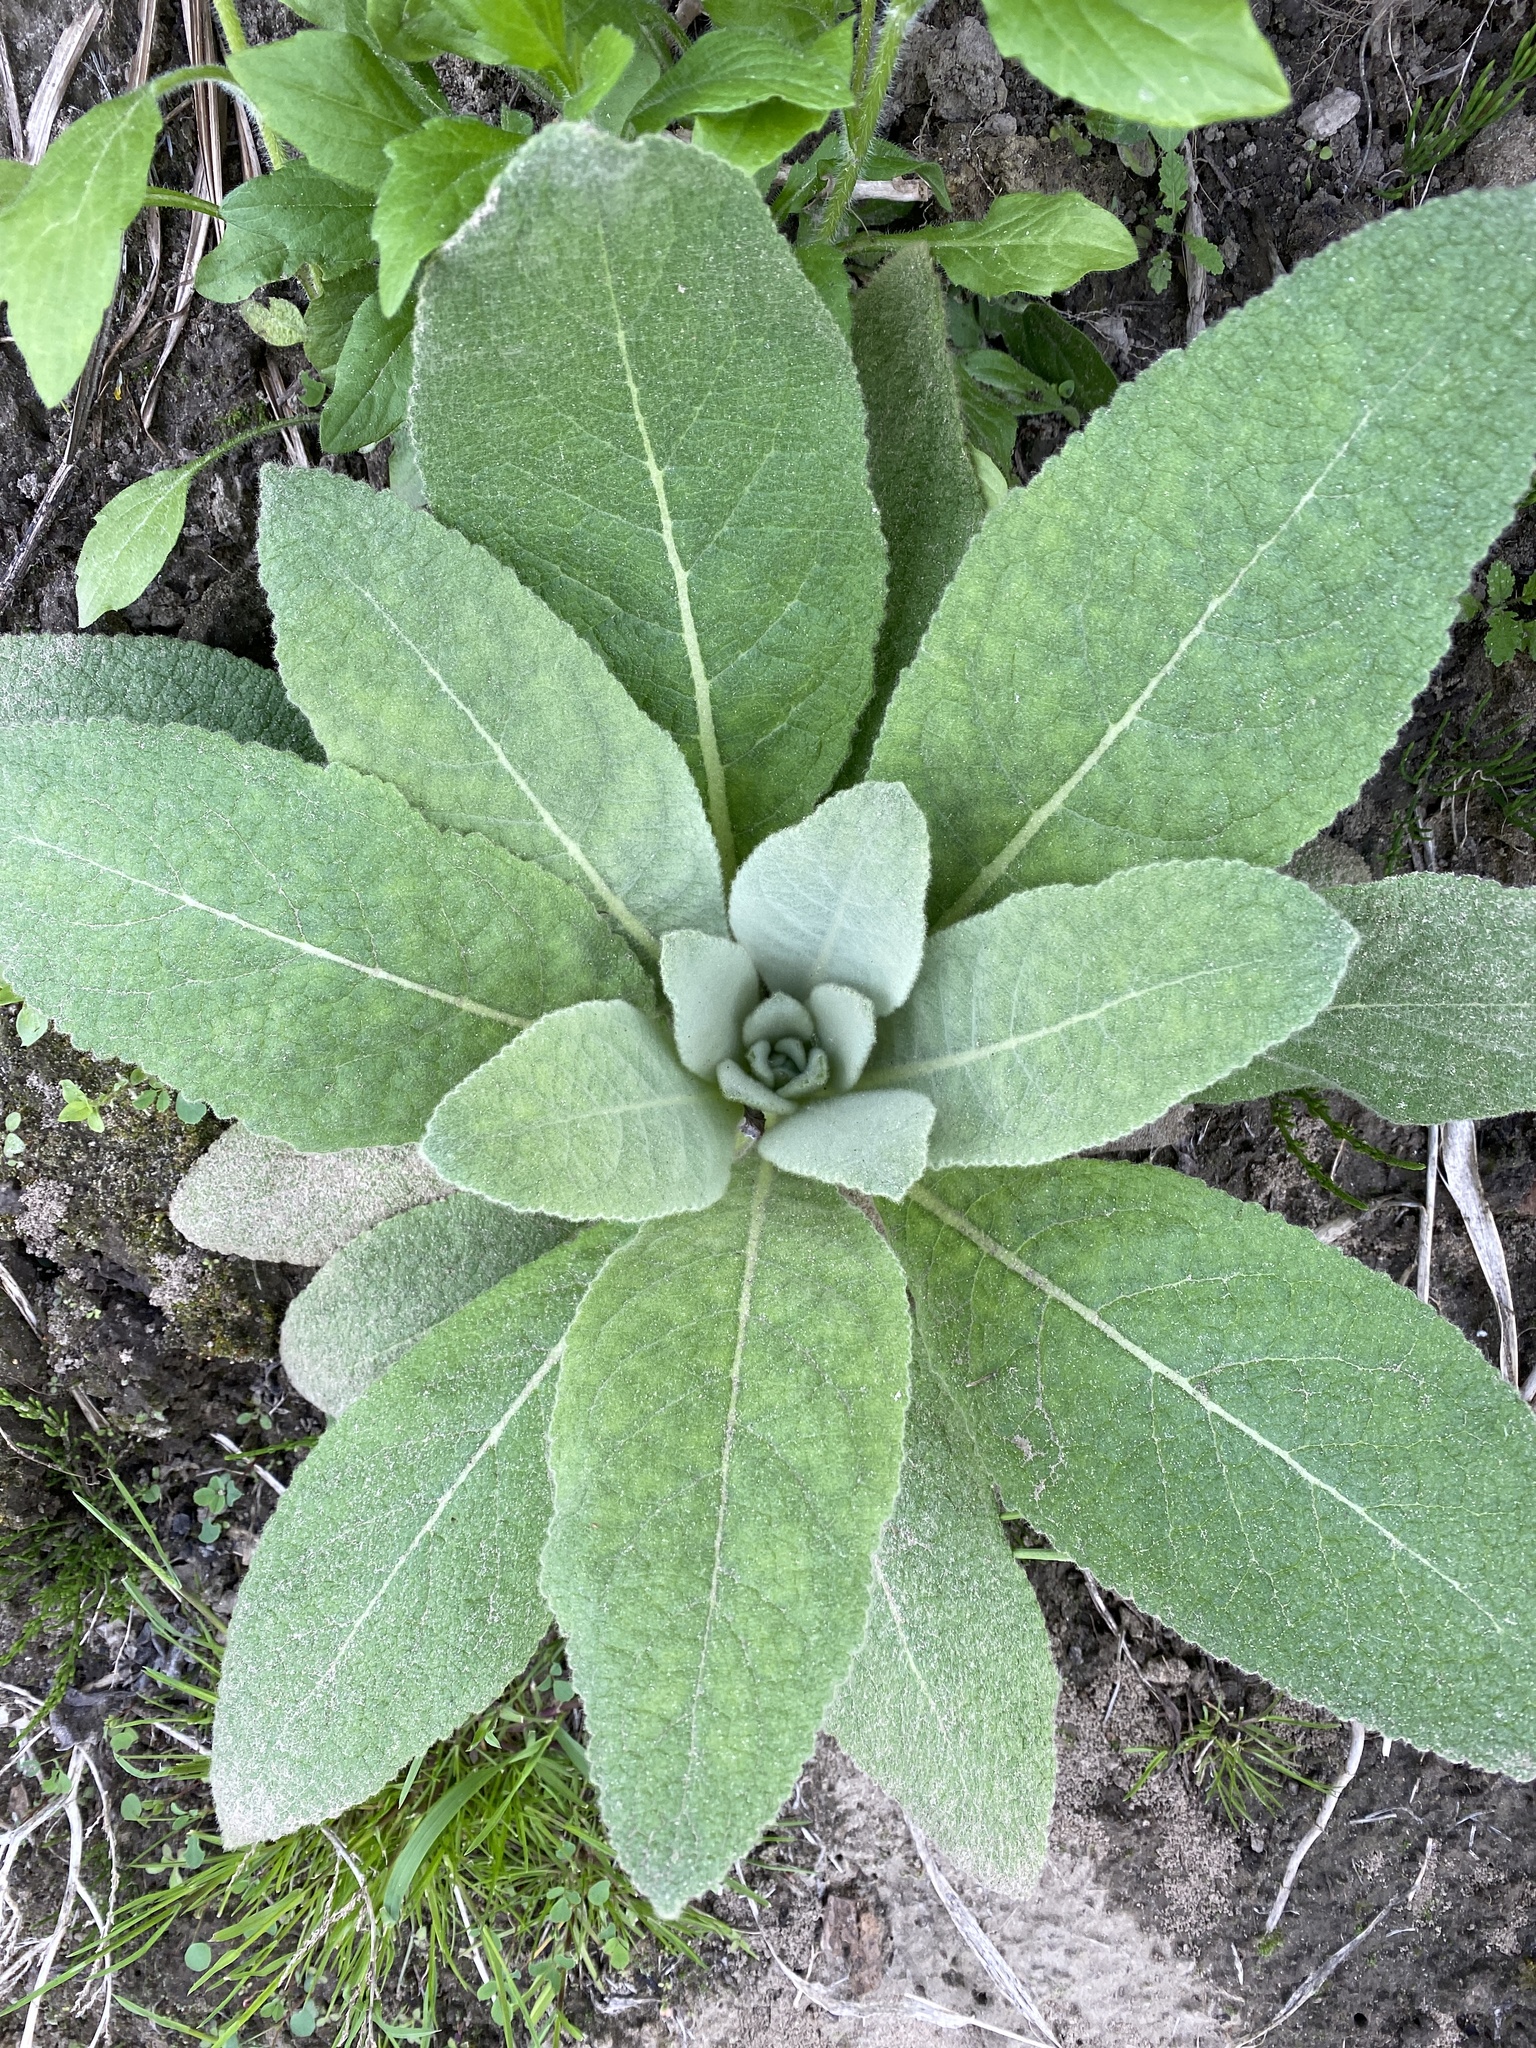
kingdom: Plantae
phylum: Tracheophyta
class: Magnoliopsida
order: Lamiales
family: Scrophulariaceae
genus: Verbascum
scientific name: Verbascum thapsus
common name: Common mullein
